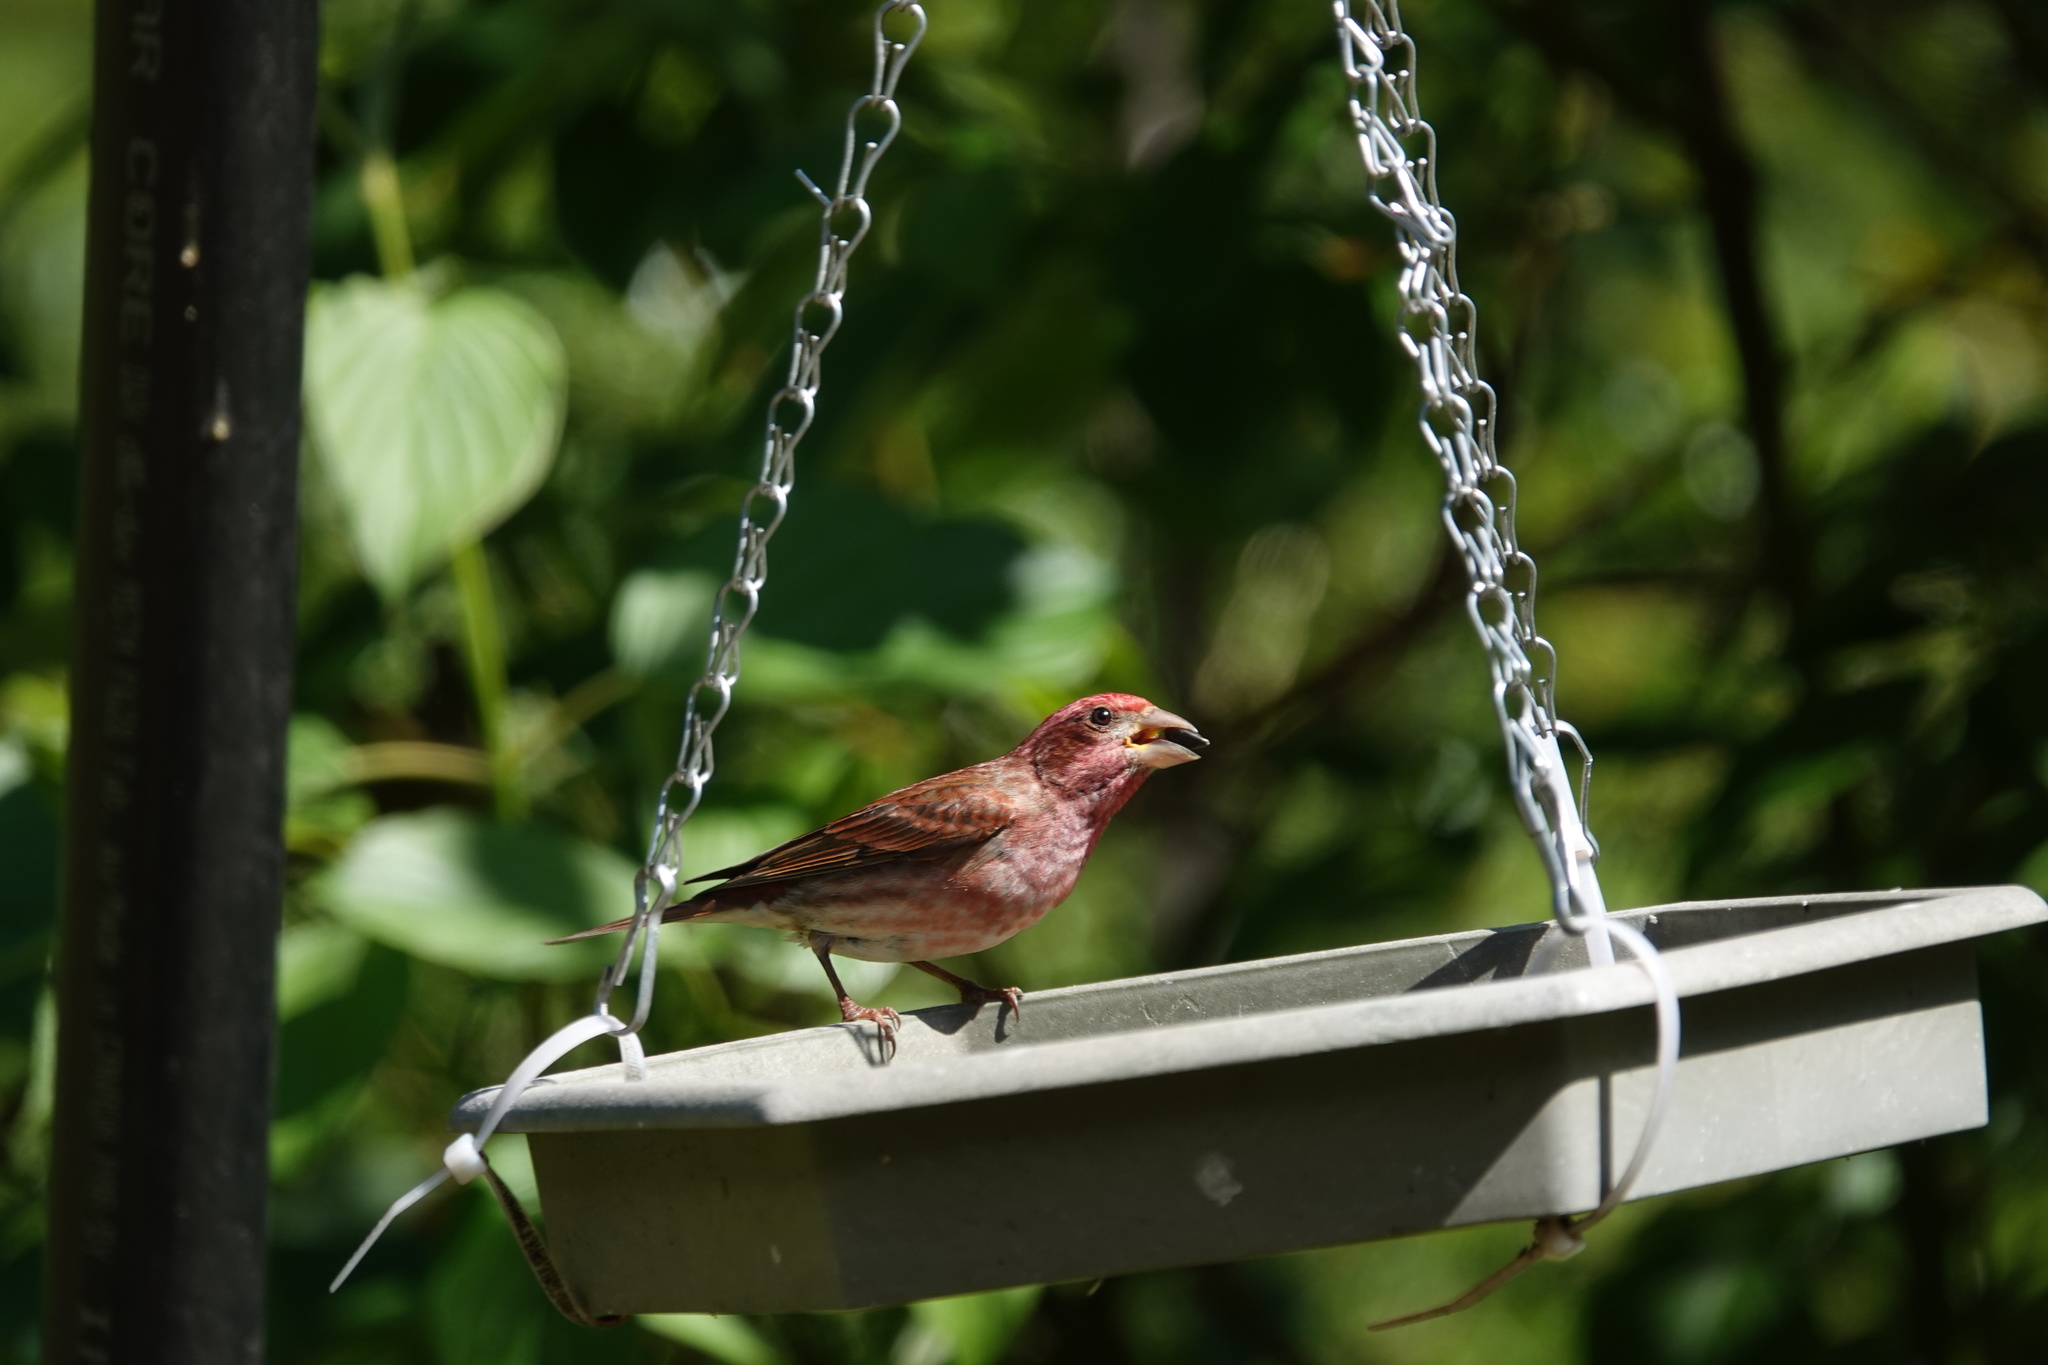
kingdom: Animalia
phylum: Chordata
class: Aves
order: Passeriformes
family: Fringillidae
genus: Haemorhous
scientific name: Haemorhous purpureus
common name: Purple finch
